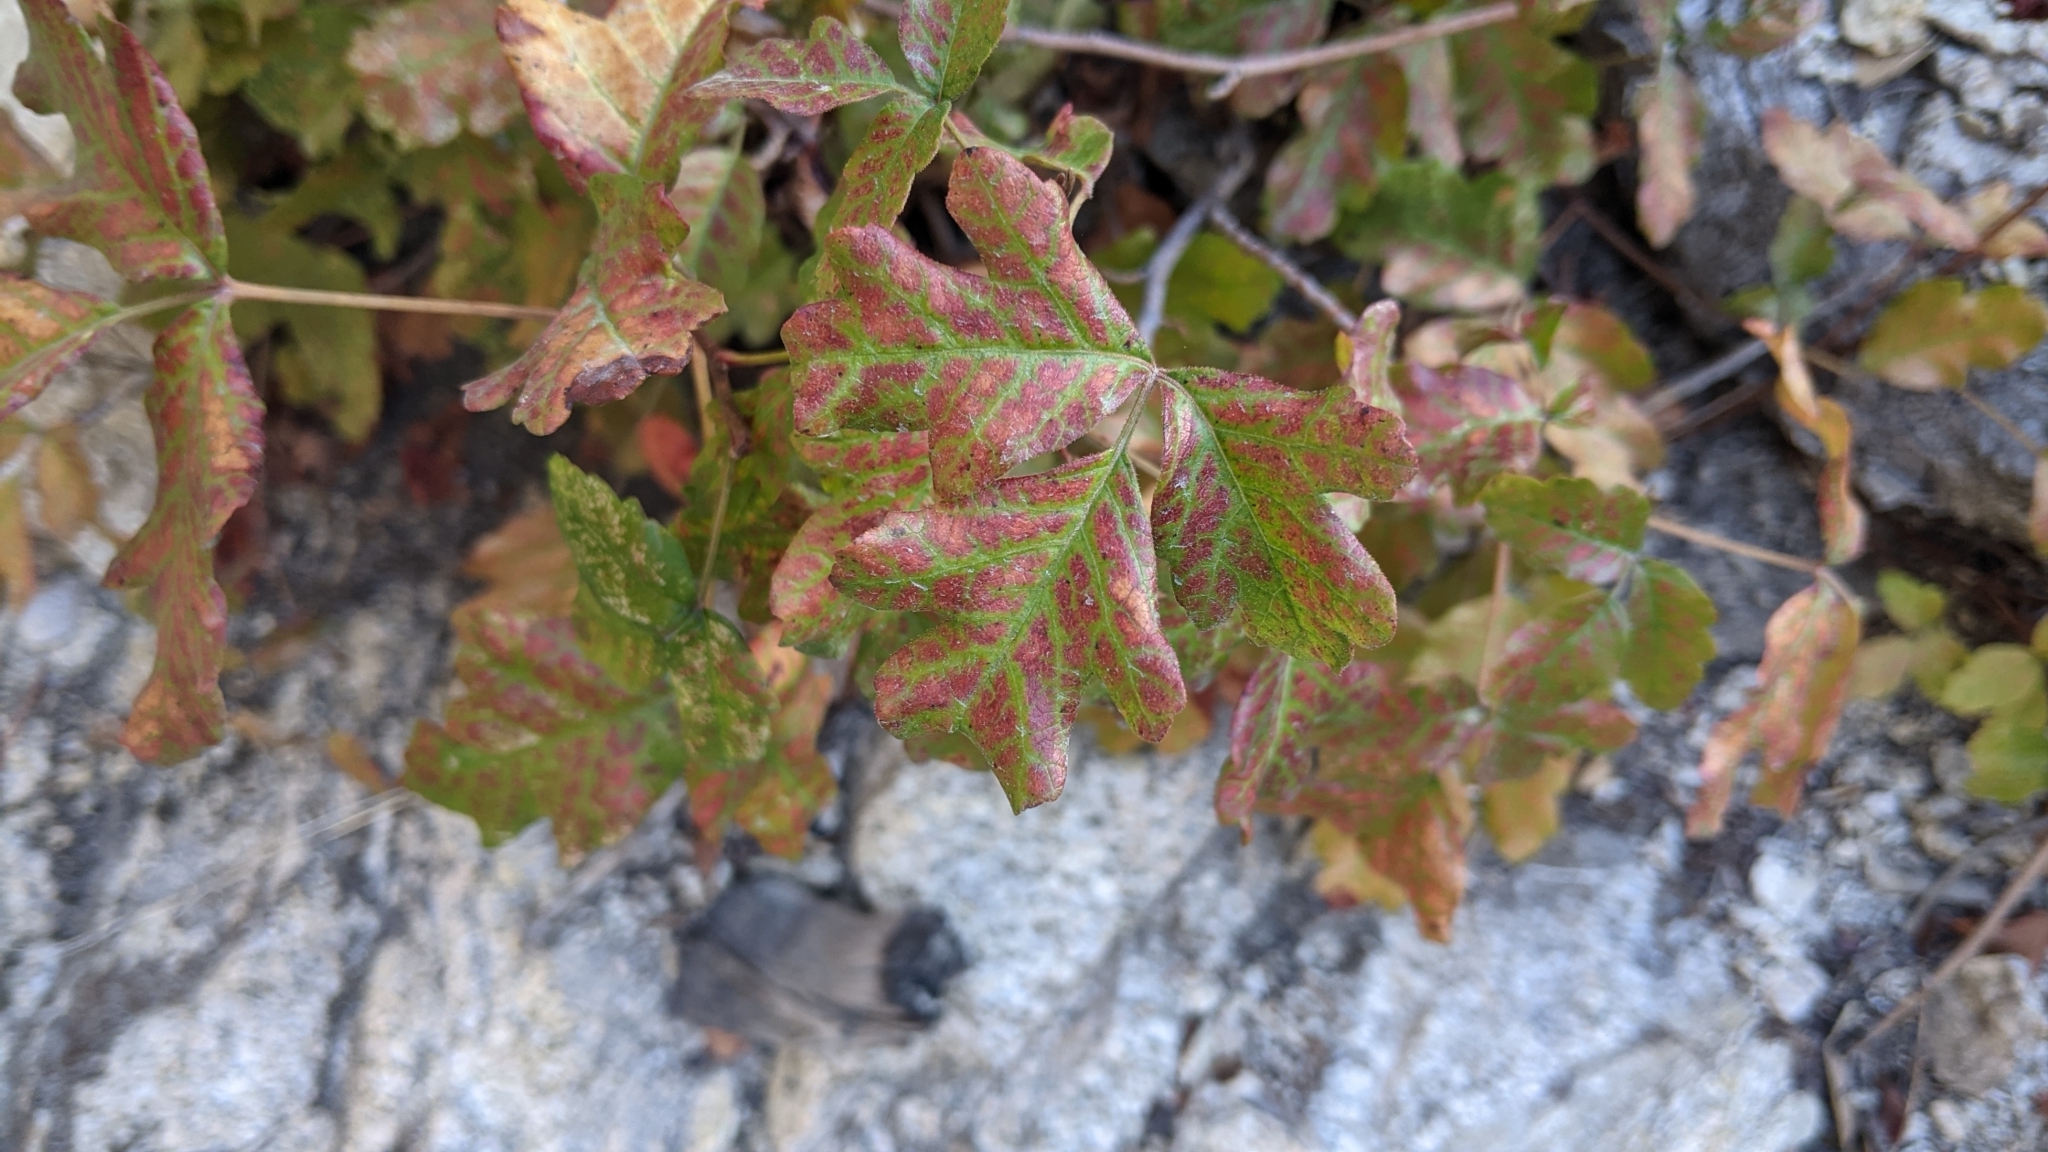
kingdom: Plantae
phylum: Tracheophyta
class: Magnoliopsida
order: Sapindales
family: Anacardiaceae
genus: Toxicodendron
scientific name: Toxicodendron diversilobum
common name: Pacific poison-oak
